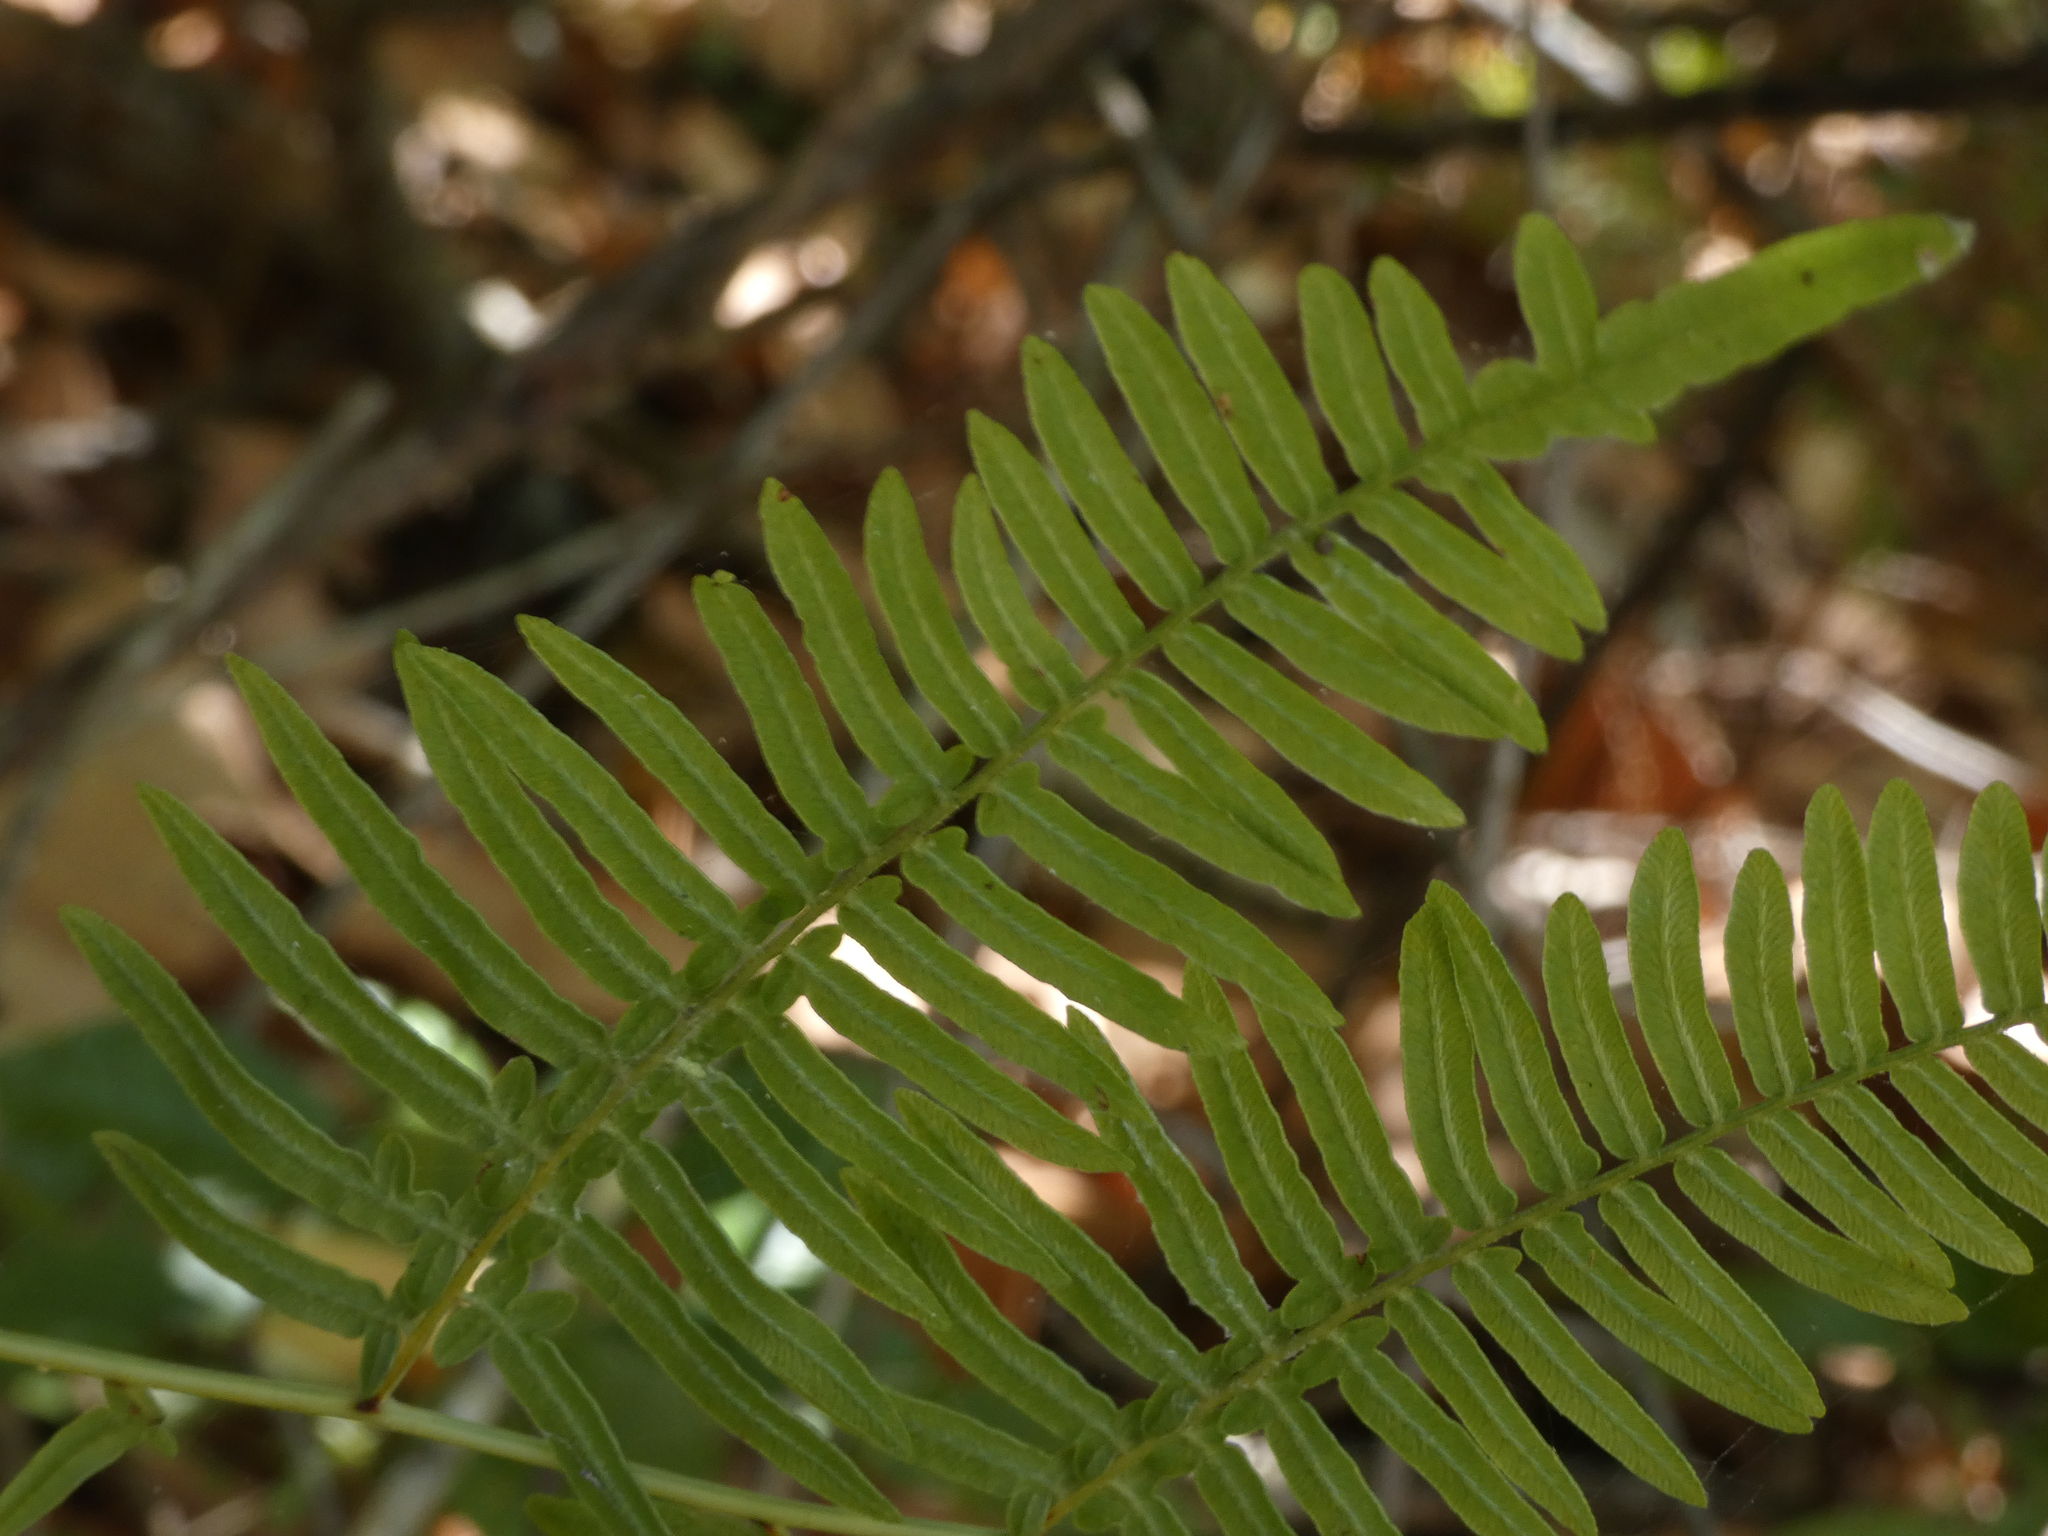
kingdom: Plantae
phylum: Tracheophyta
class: Polypodiopsida
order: Polypodiales
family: Dennstaedtiaceae
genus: Pteridium
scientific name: Pteridium caudatum
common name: Southern bracken fern
